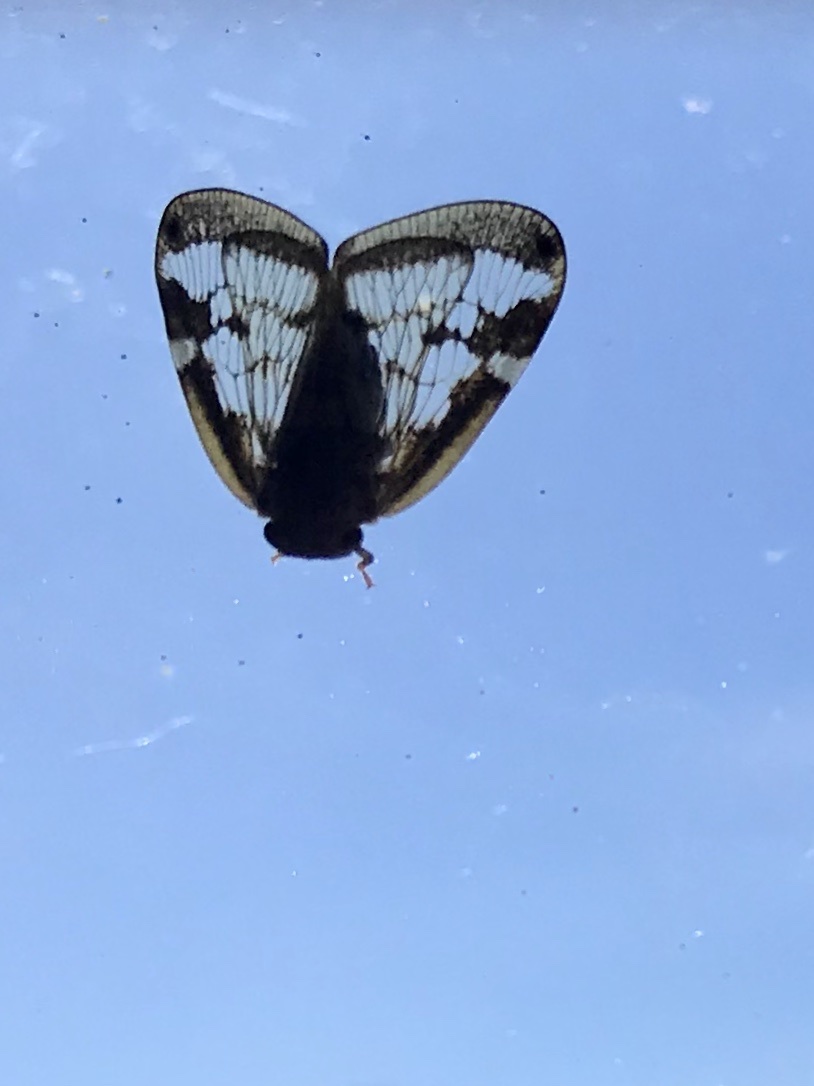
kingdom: Animalia
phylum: Arthropoda
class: Insecta
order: Hemiptera
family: Ricaniidae
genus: Scolypopa
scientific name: Scolypopa australis
